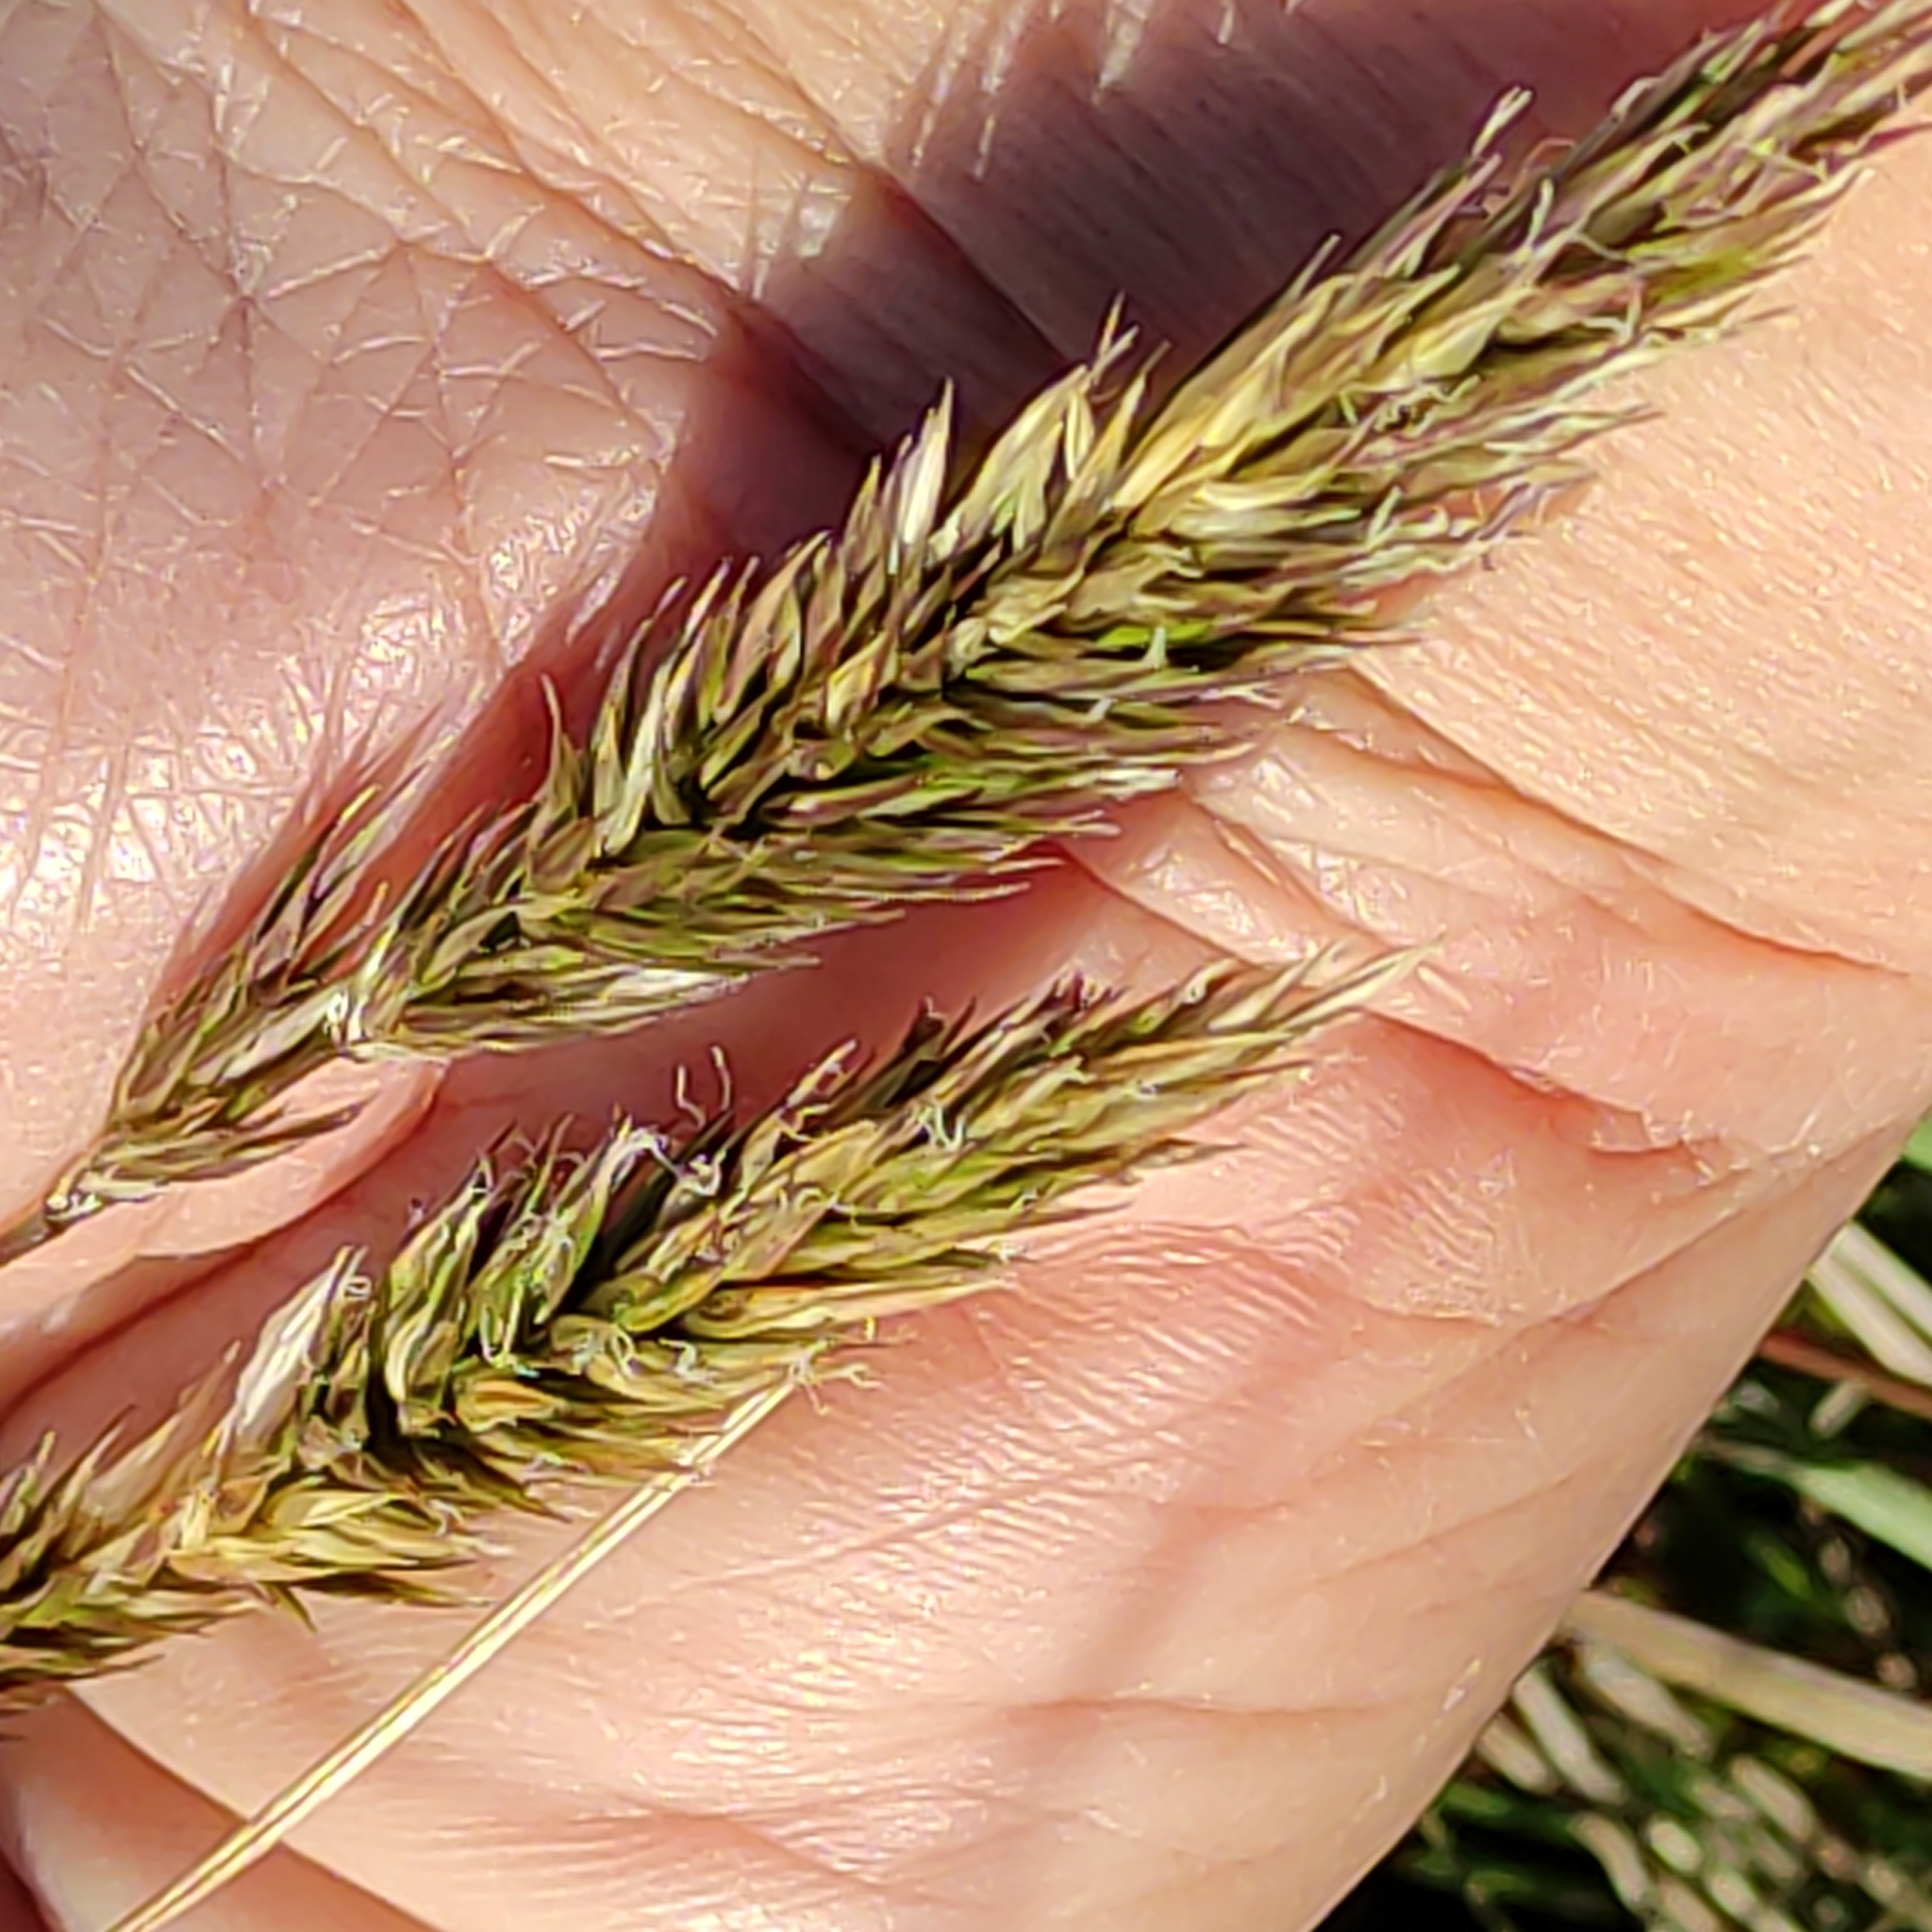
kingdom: Plantae
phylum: Tracheophyta
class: Liliopsida
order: Poales
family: Poaceae
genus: Anthoxanthum
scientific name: Anthoxanthum odoratum
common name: Sweet vernalgrass
